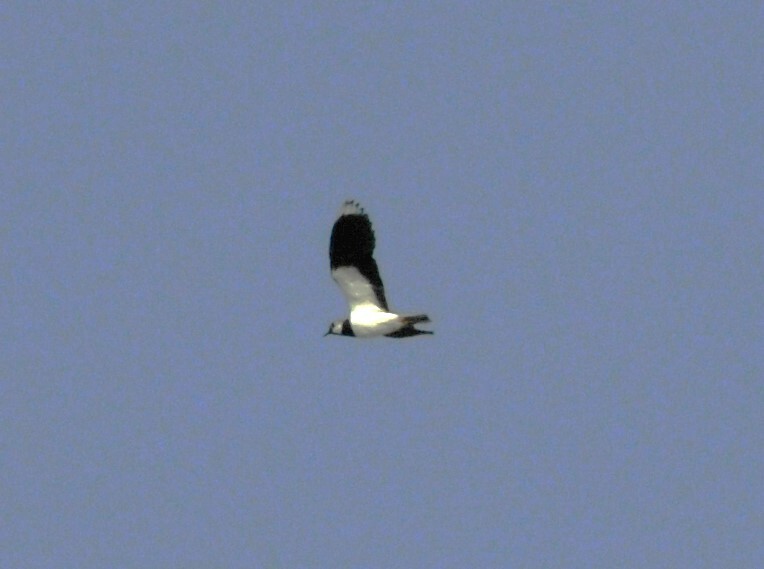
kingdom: Animalia
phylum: Chordata
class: Aves
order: Charadriiformes
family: Charadriidae
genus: Vanellus
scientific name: Vanellus vanellus
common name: Northern lapwing
